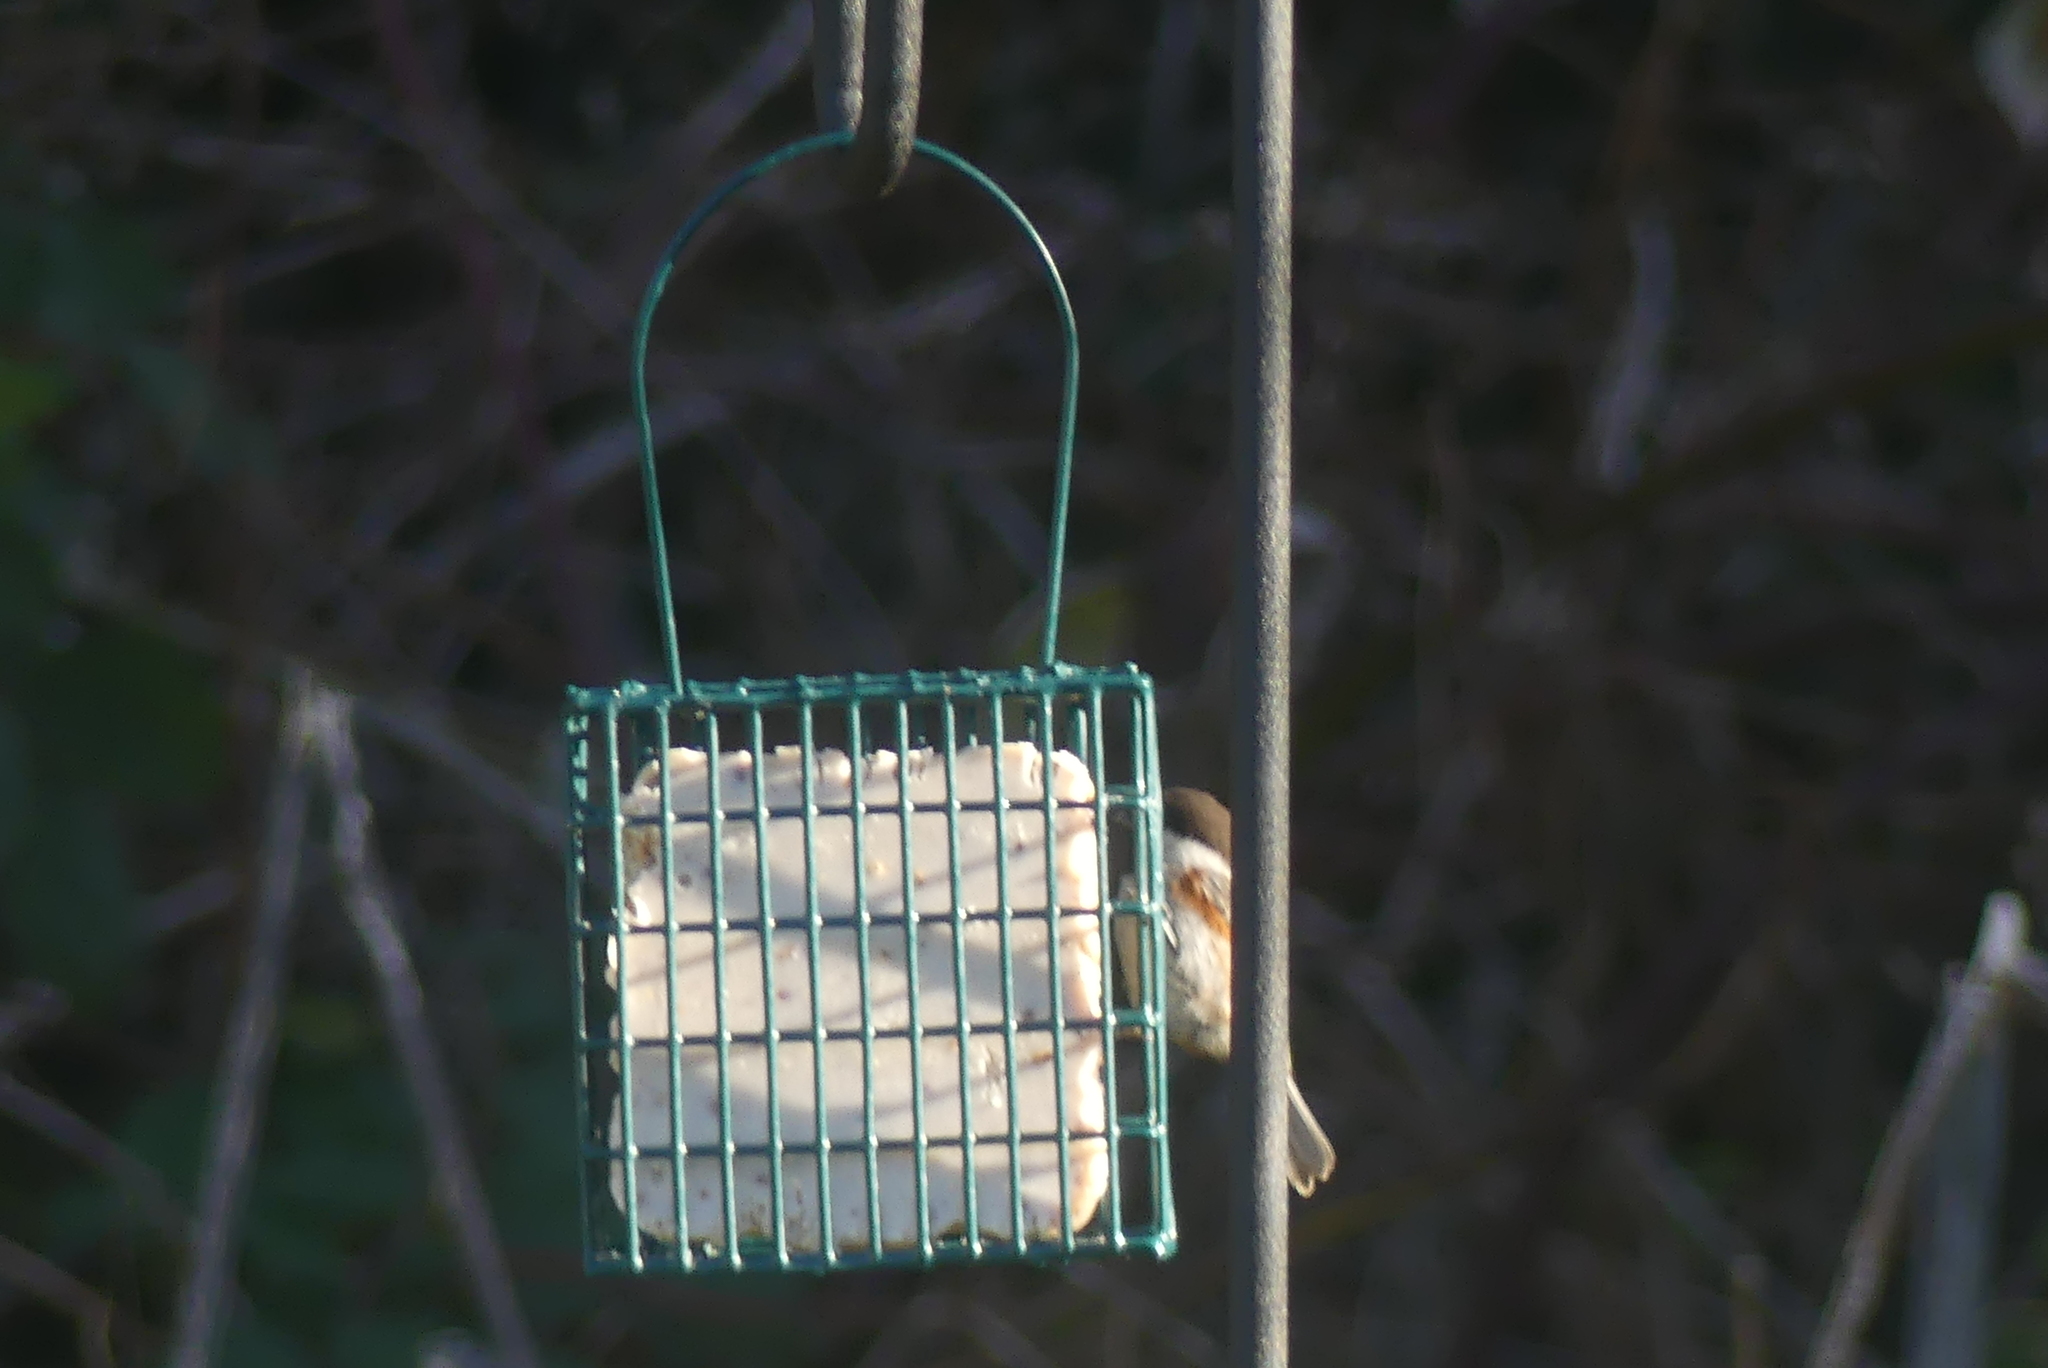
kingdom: Animalia
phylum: Chordata
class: Aves
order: Passeriformes
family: Paridae
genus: Poecile
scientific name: Poecile rufescens
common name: Chestnut-backed chickadee
